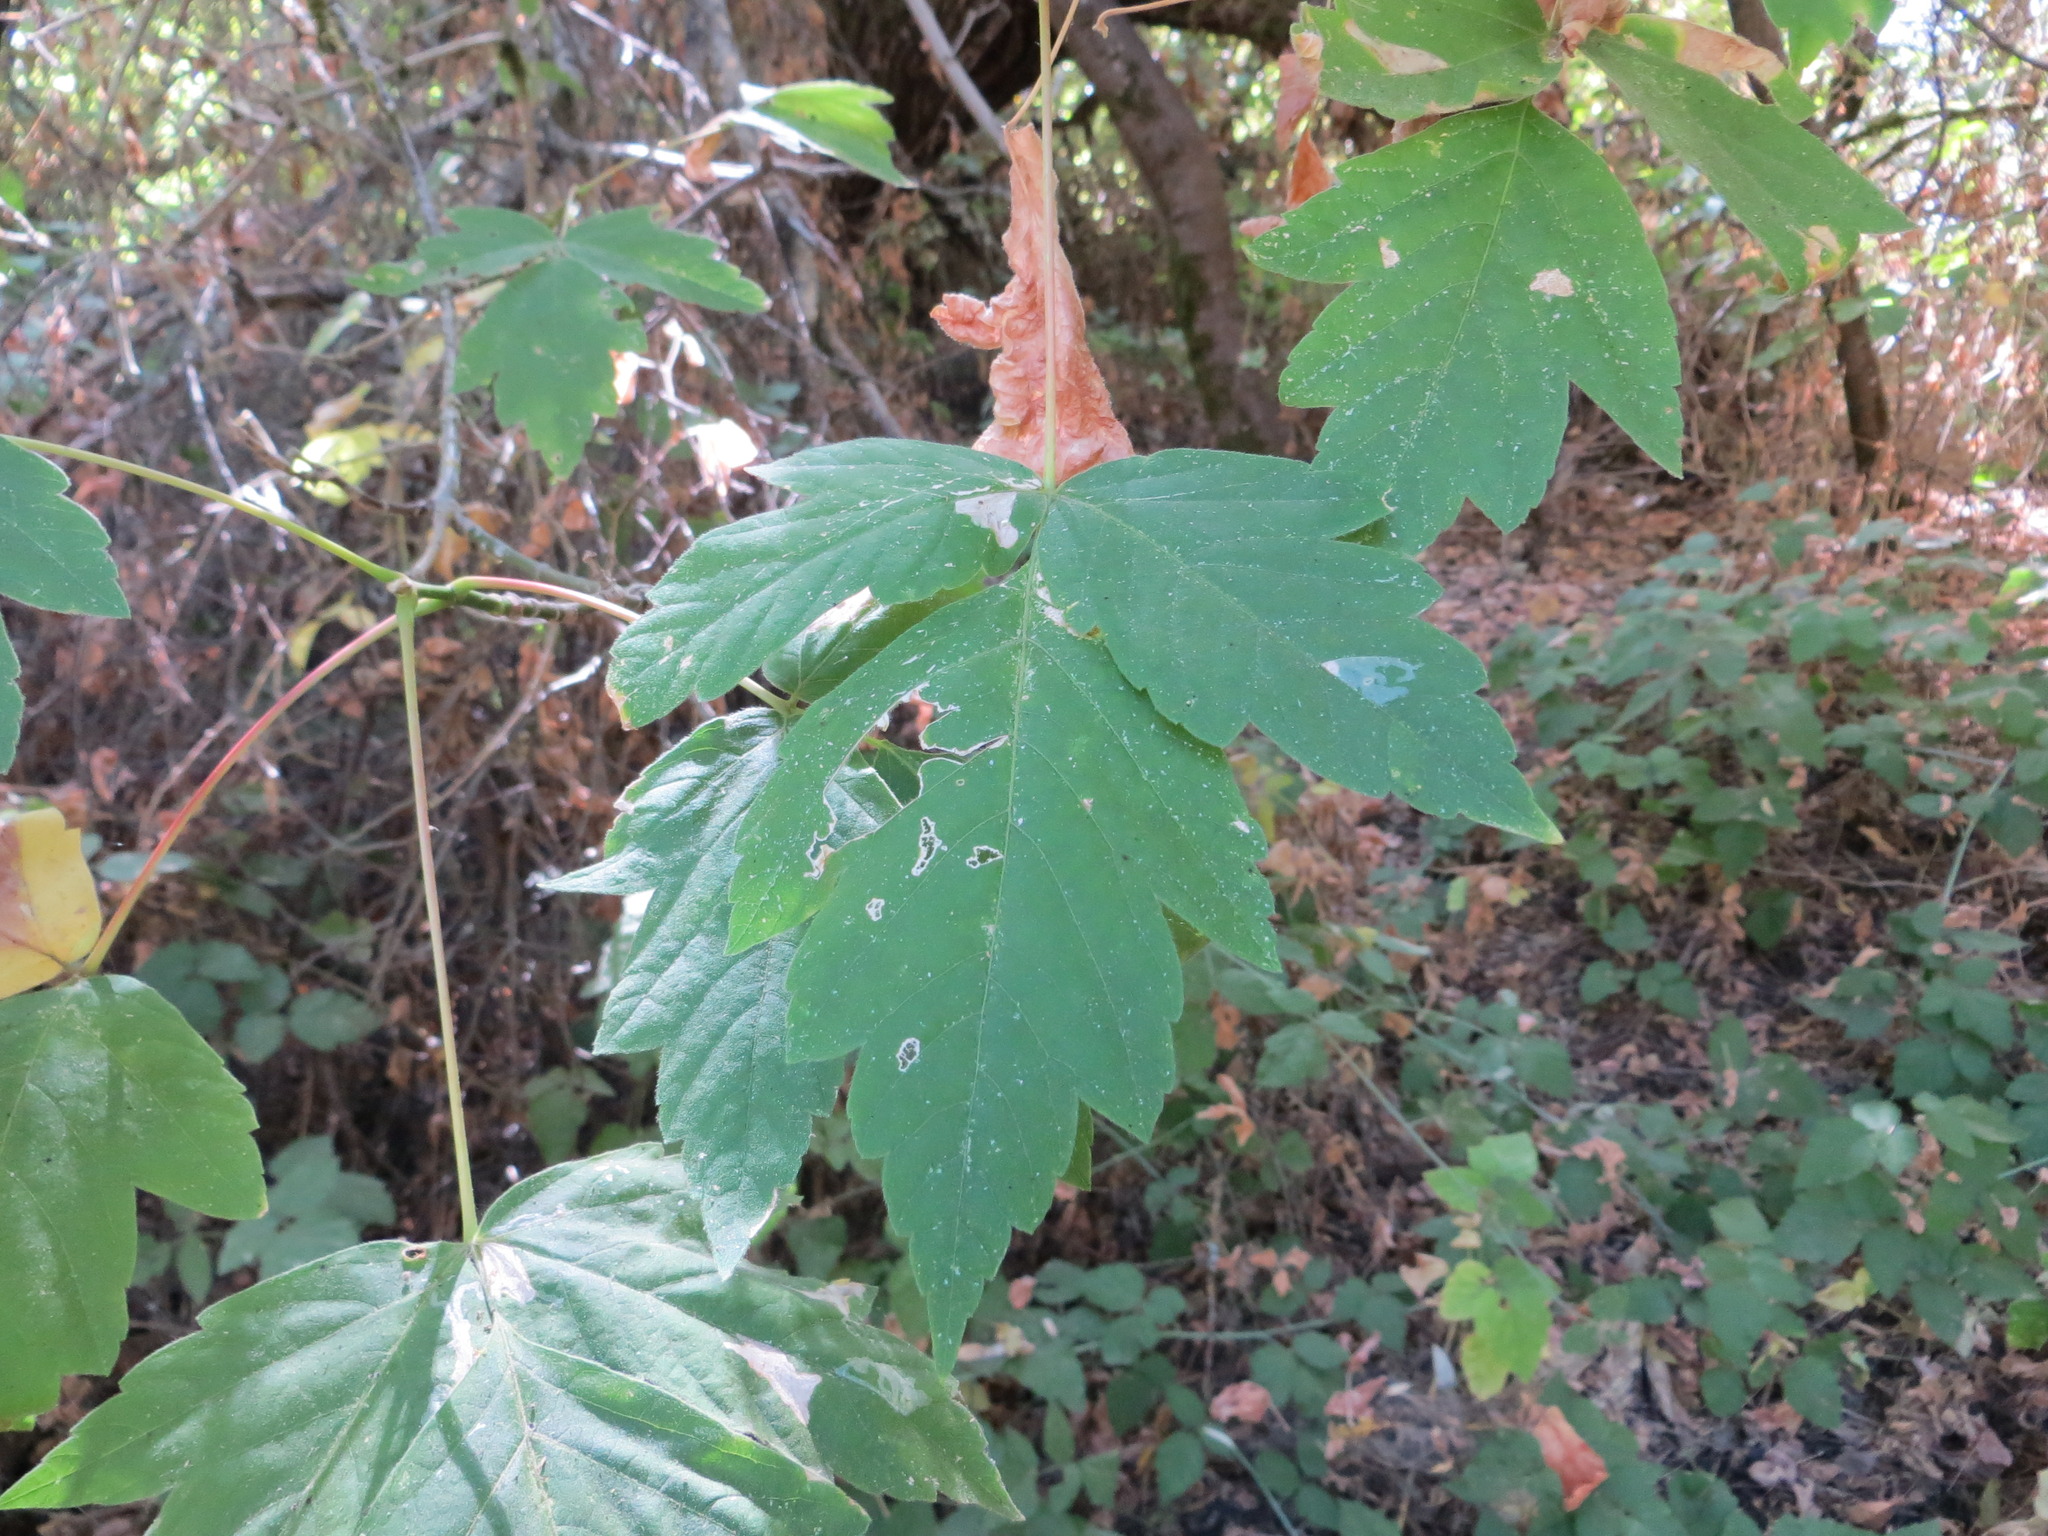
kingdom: Plantae
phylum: Tracheophyta
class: Magnoliopsida
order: Sapindales
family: Sapindaceae
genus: Acer
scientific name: Acer negundo
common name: Ashleaf maple
